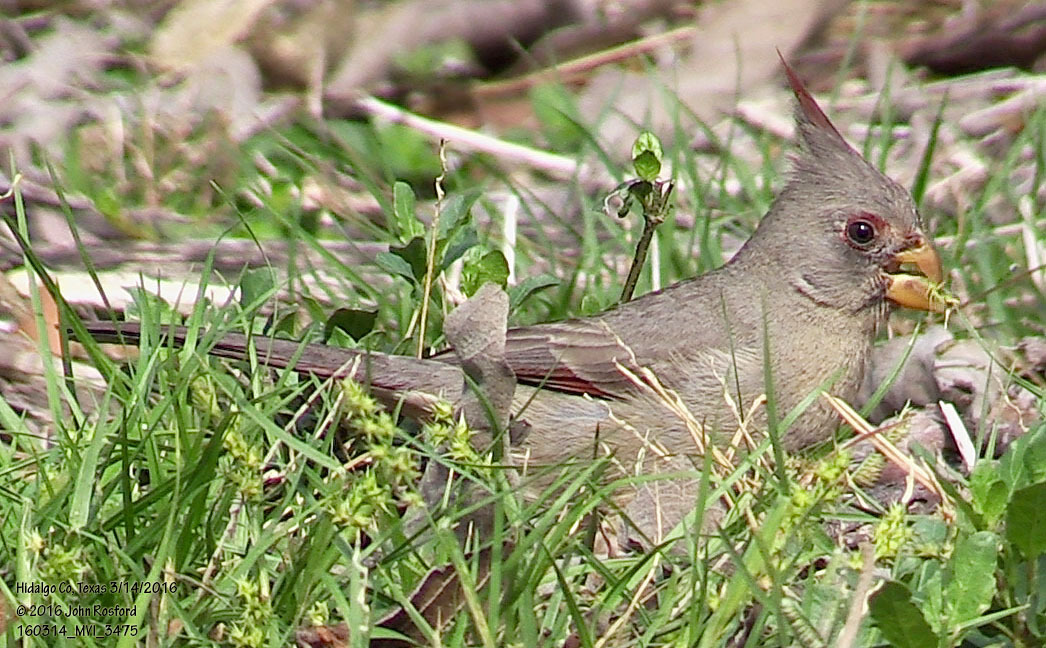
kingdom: Animalia
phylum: Chordata
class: Aves
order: Passeriformes
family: Cardinalidae
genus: Cardinalis
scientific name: Cardinalis sinuatus
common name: Pyrrhuloxia
